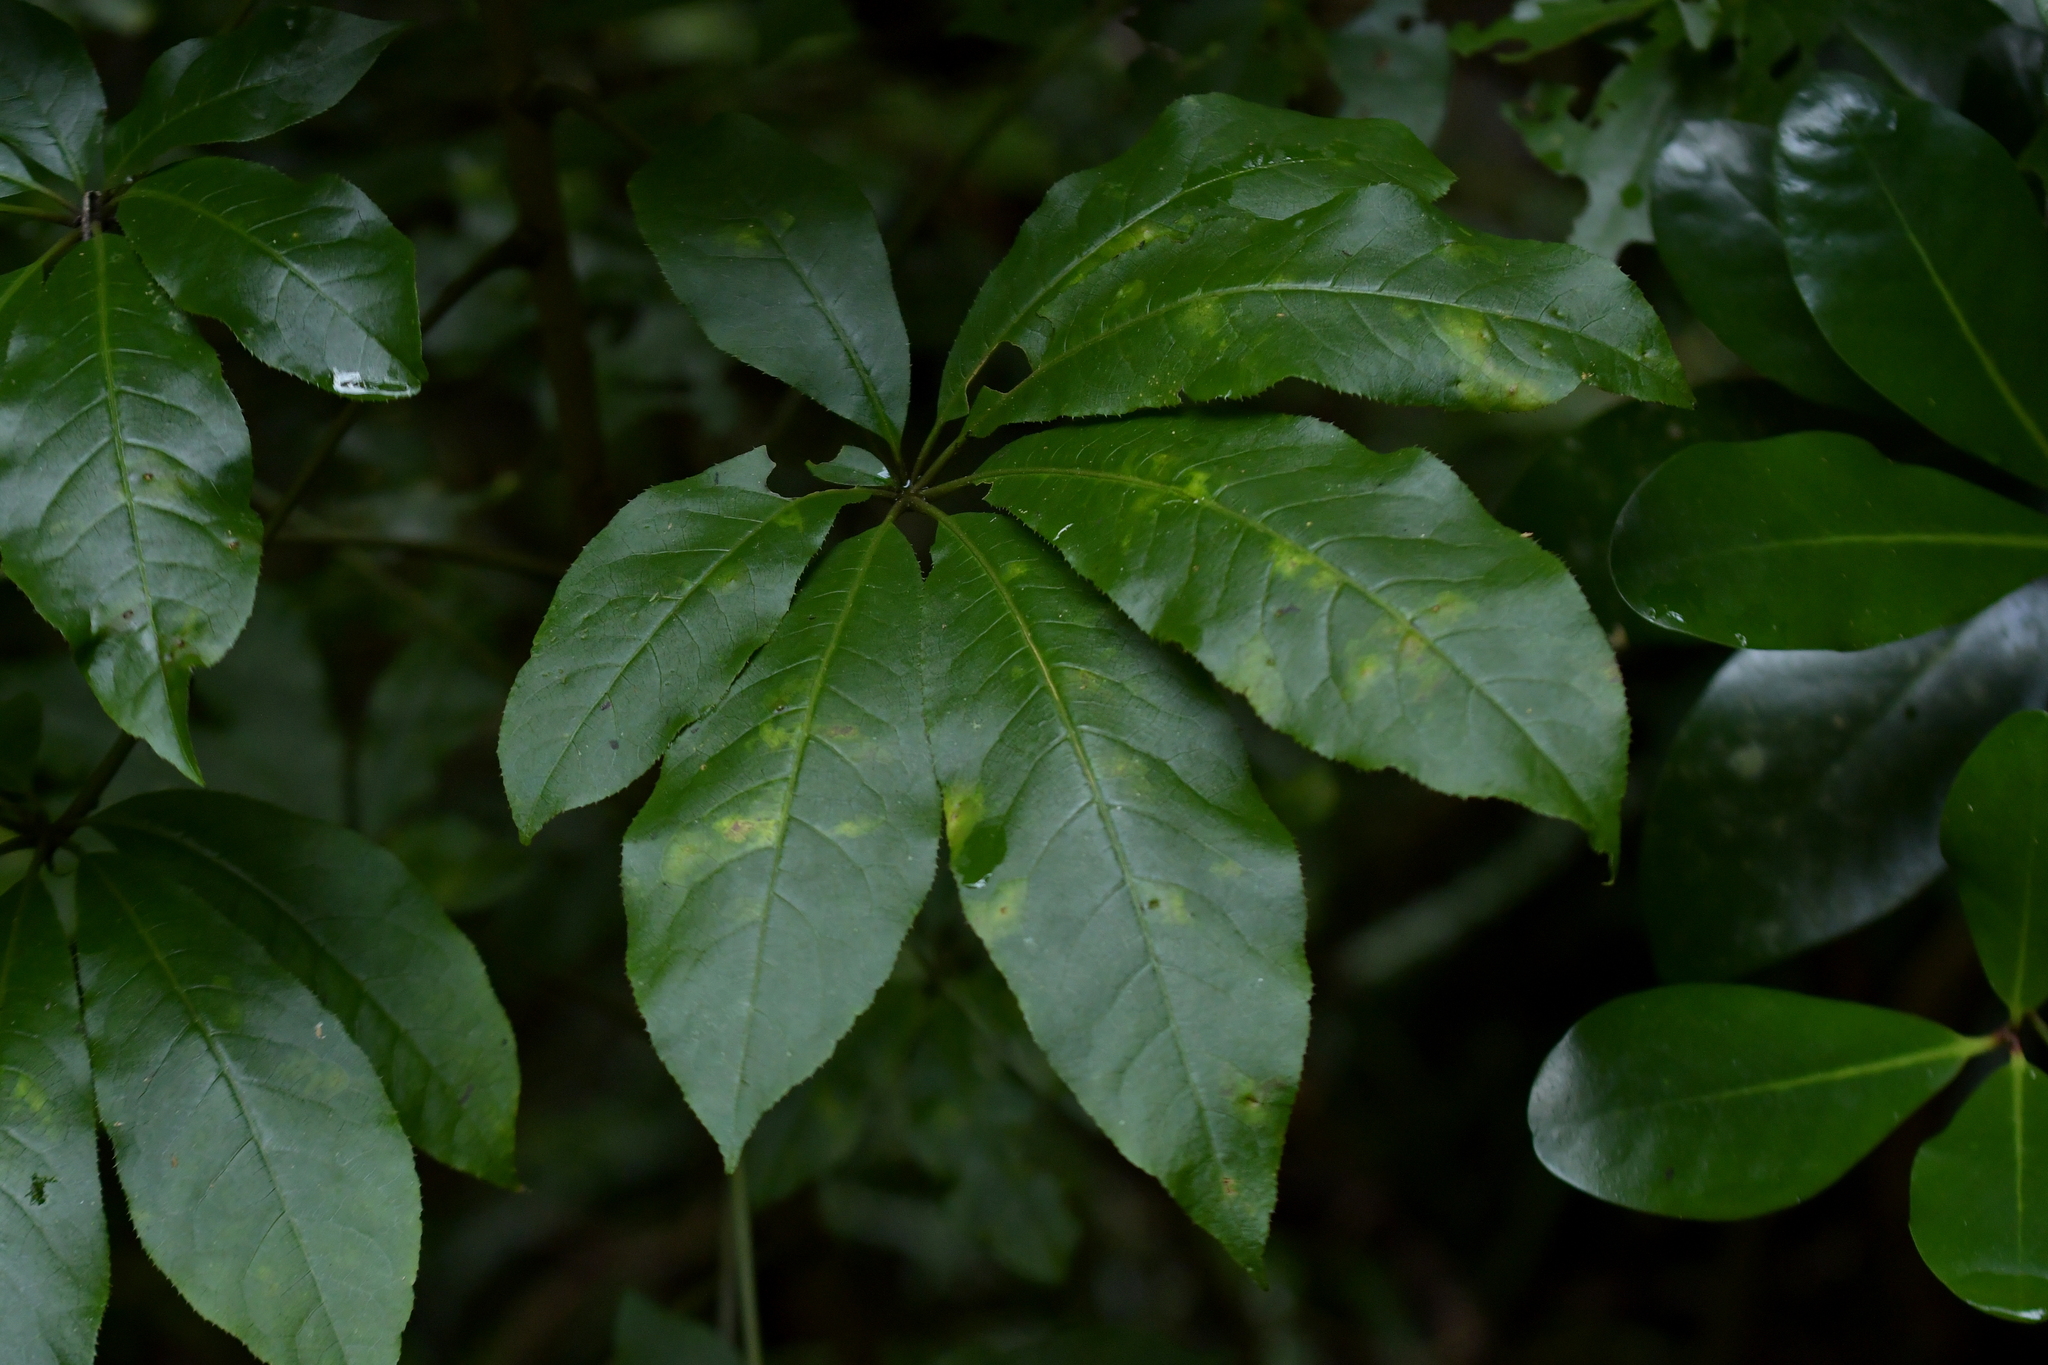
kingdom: Plantae
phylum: Tracheophyta
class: Magnoliopsida
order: Apiales
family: Araliaceae
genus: Schefflera
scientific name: Schefflera digitata
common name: Pate
